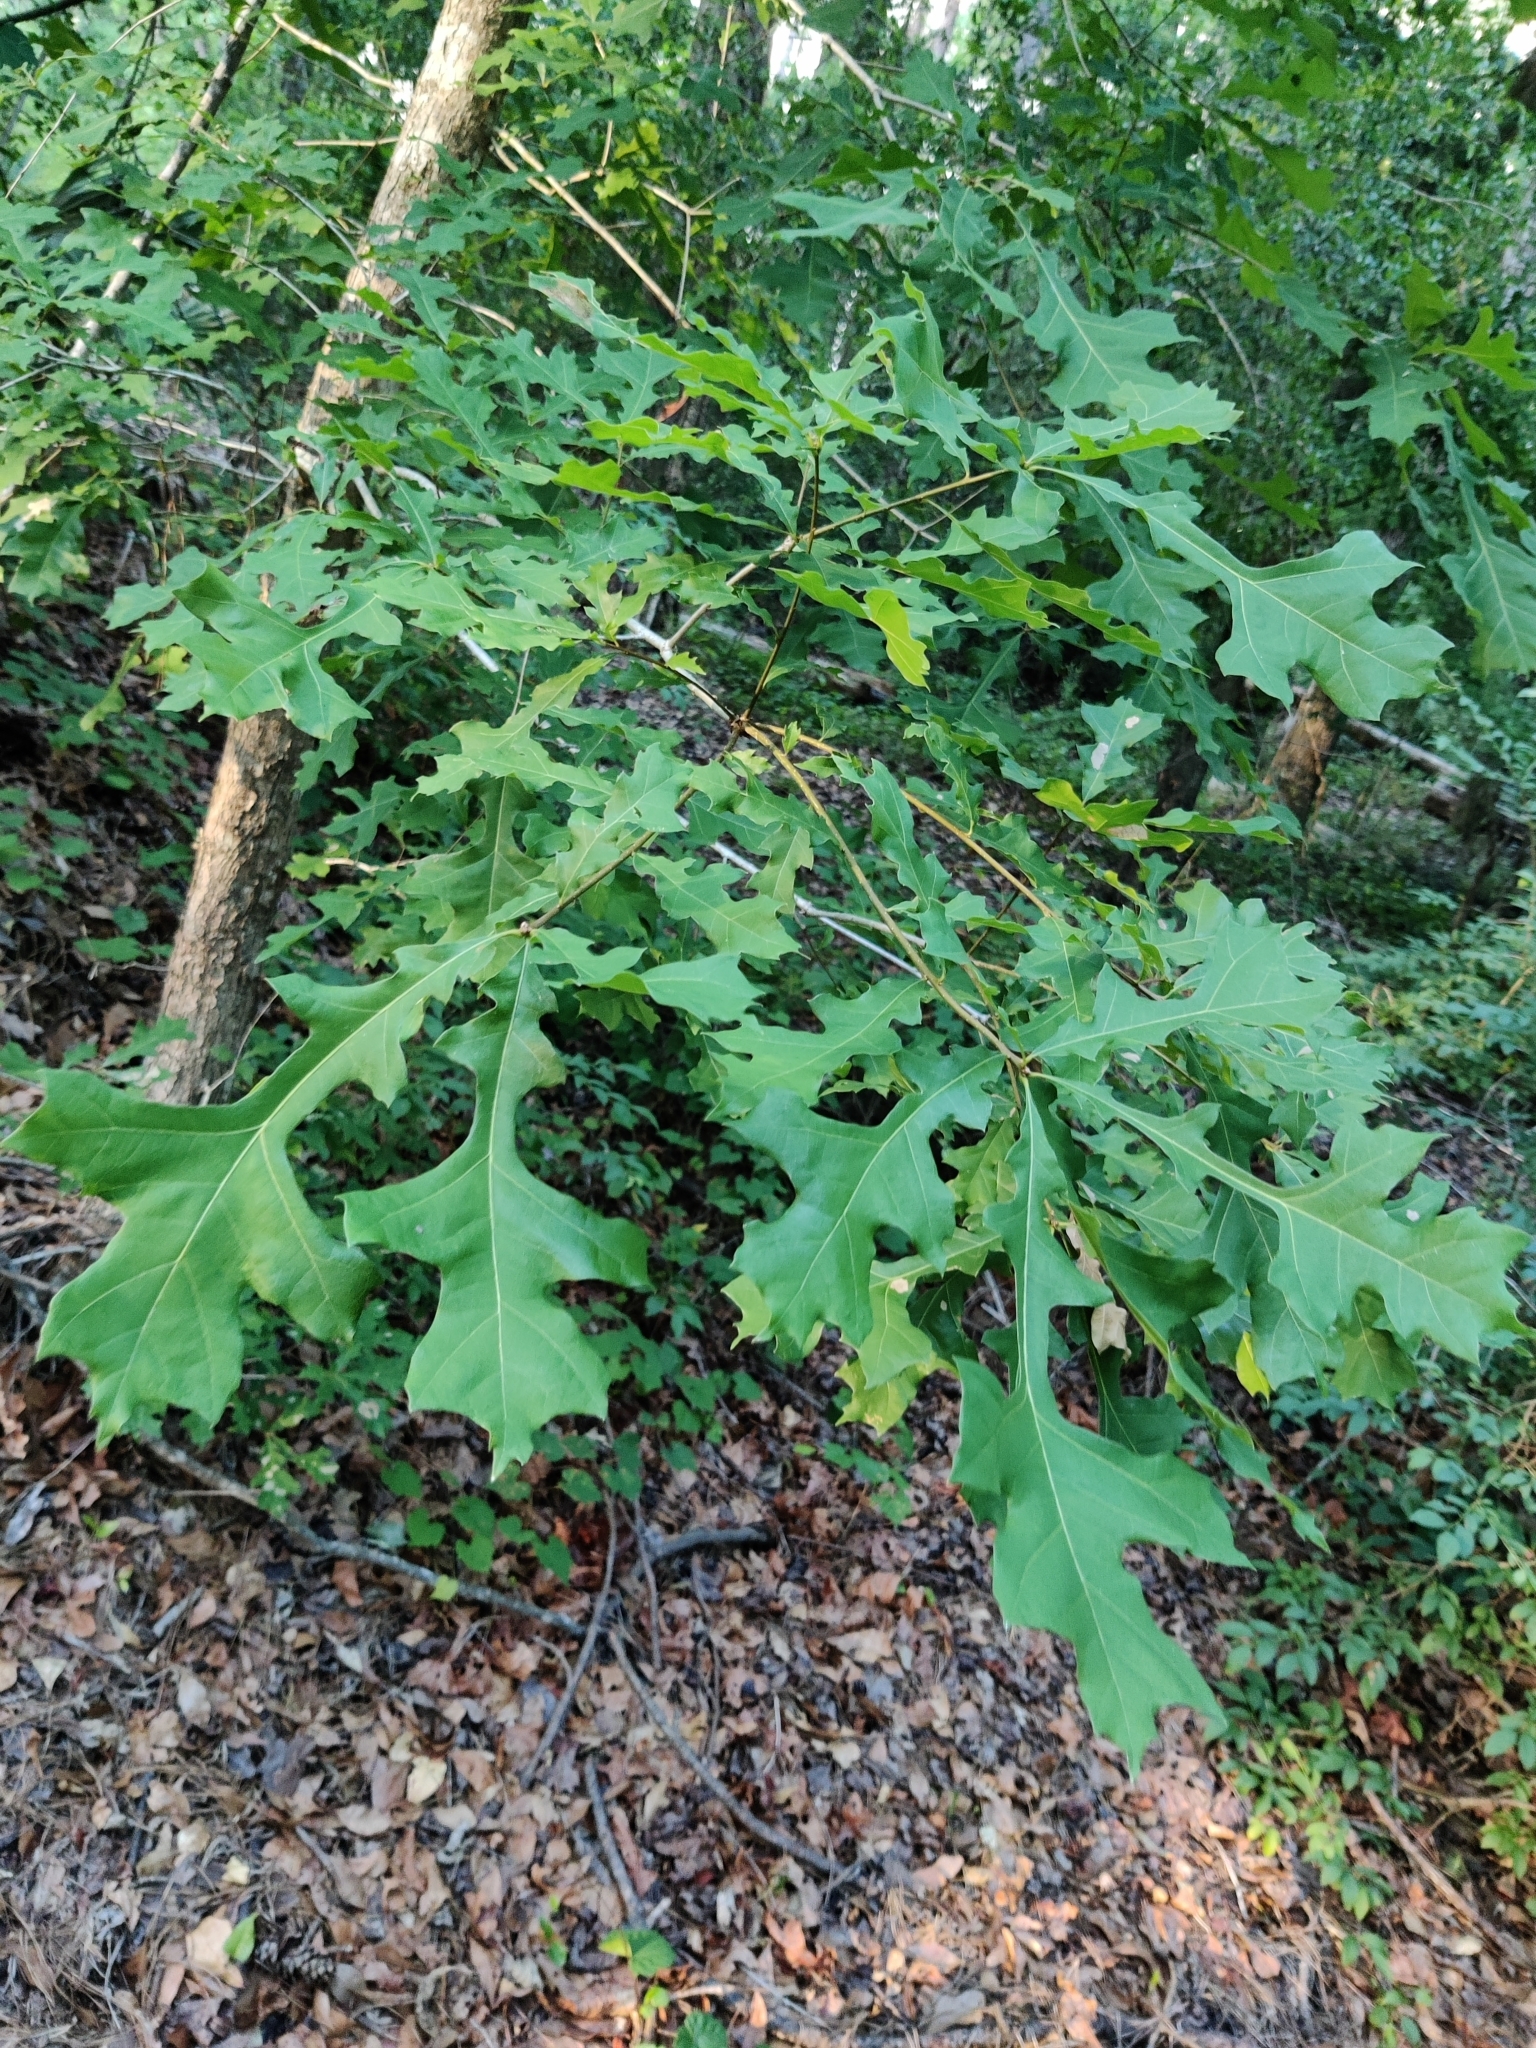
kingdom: Plantae
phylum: Tracheophyta
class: Magnoliopsida
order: Fagales
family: Fagaceae
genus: Quercus
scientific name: Quercus lyrata
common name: Overcup oak
